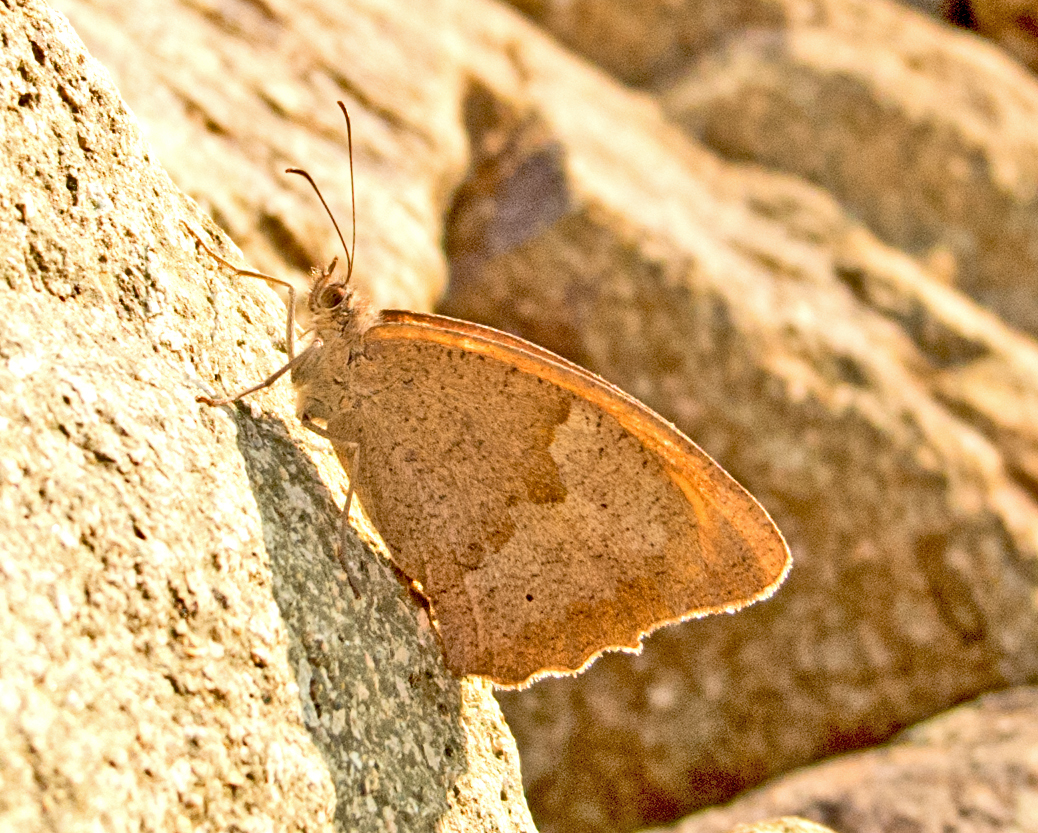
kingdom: Animalia
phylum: Arthropoda
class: Insecta
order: Lepidoptera
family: Nymphalidae
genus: Maniola
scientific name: Maniola jurtina
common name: Meadow brown
